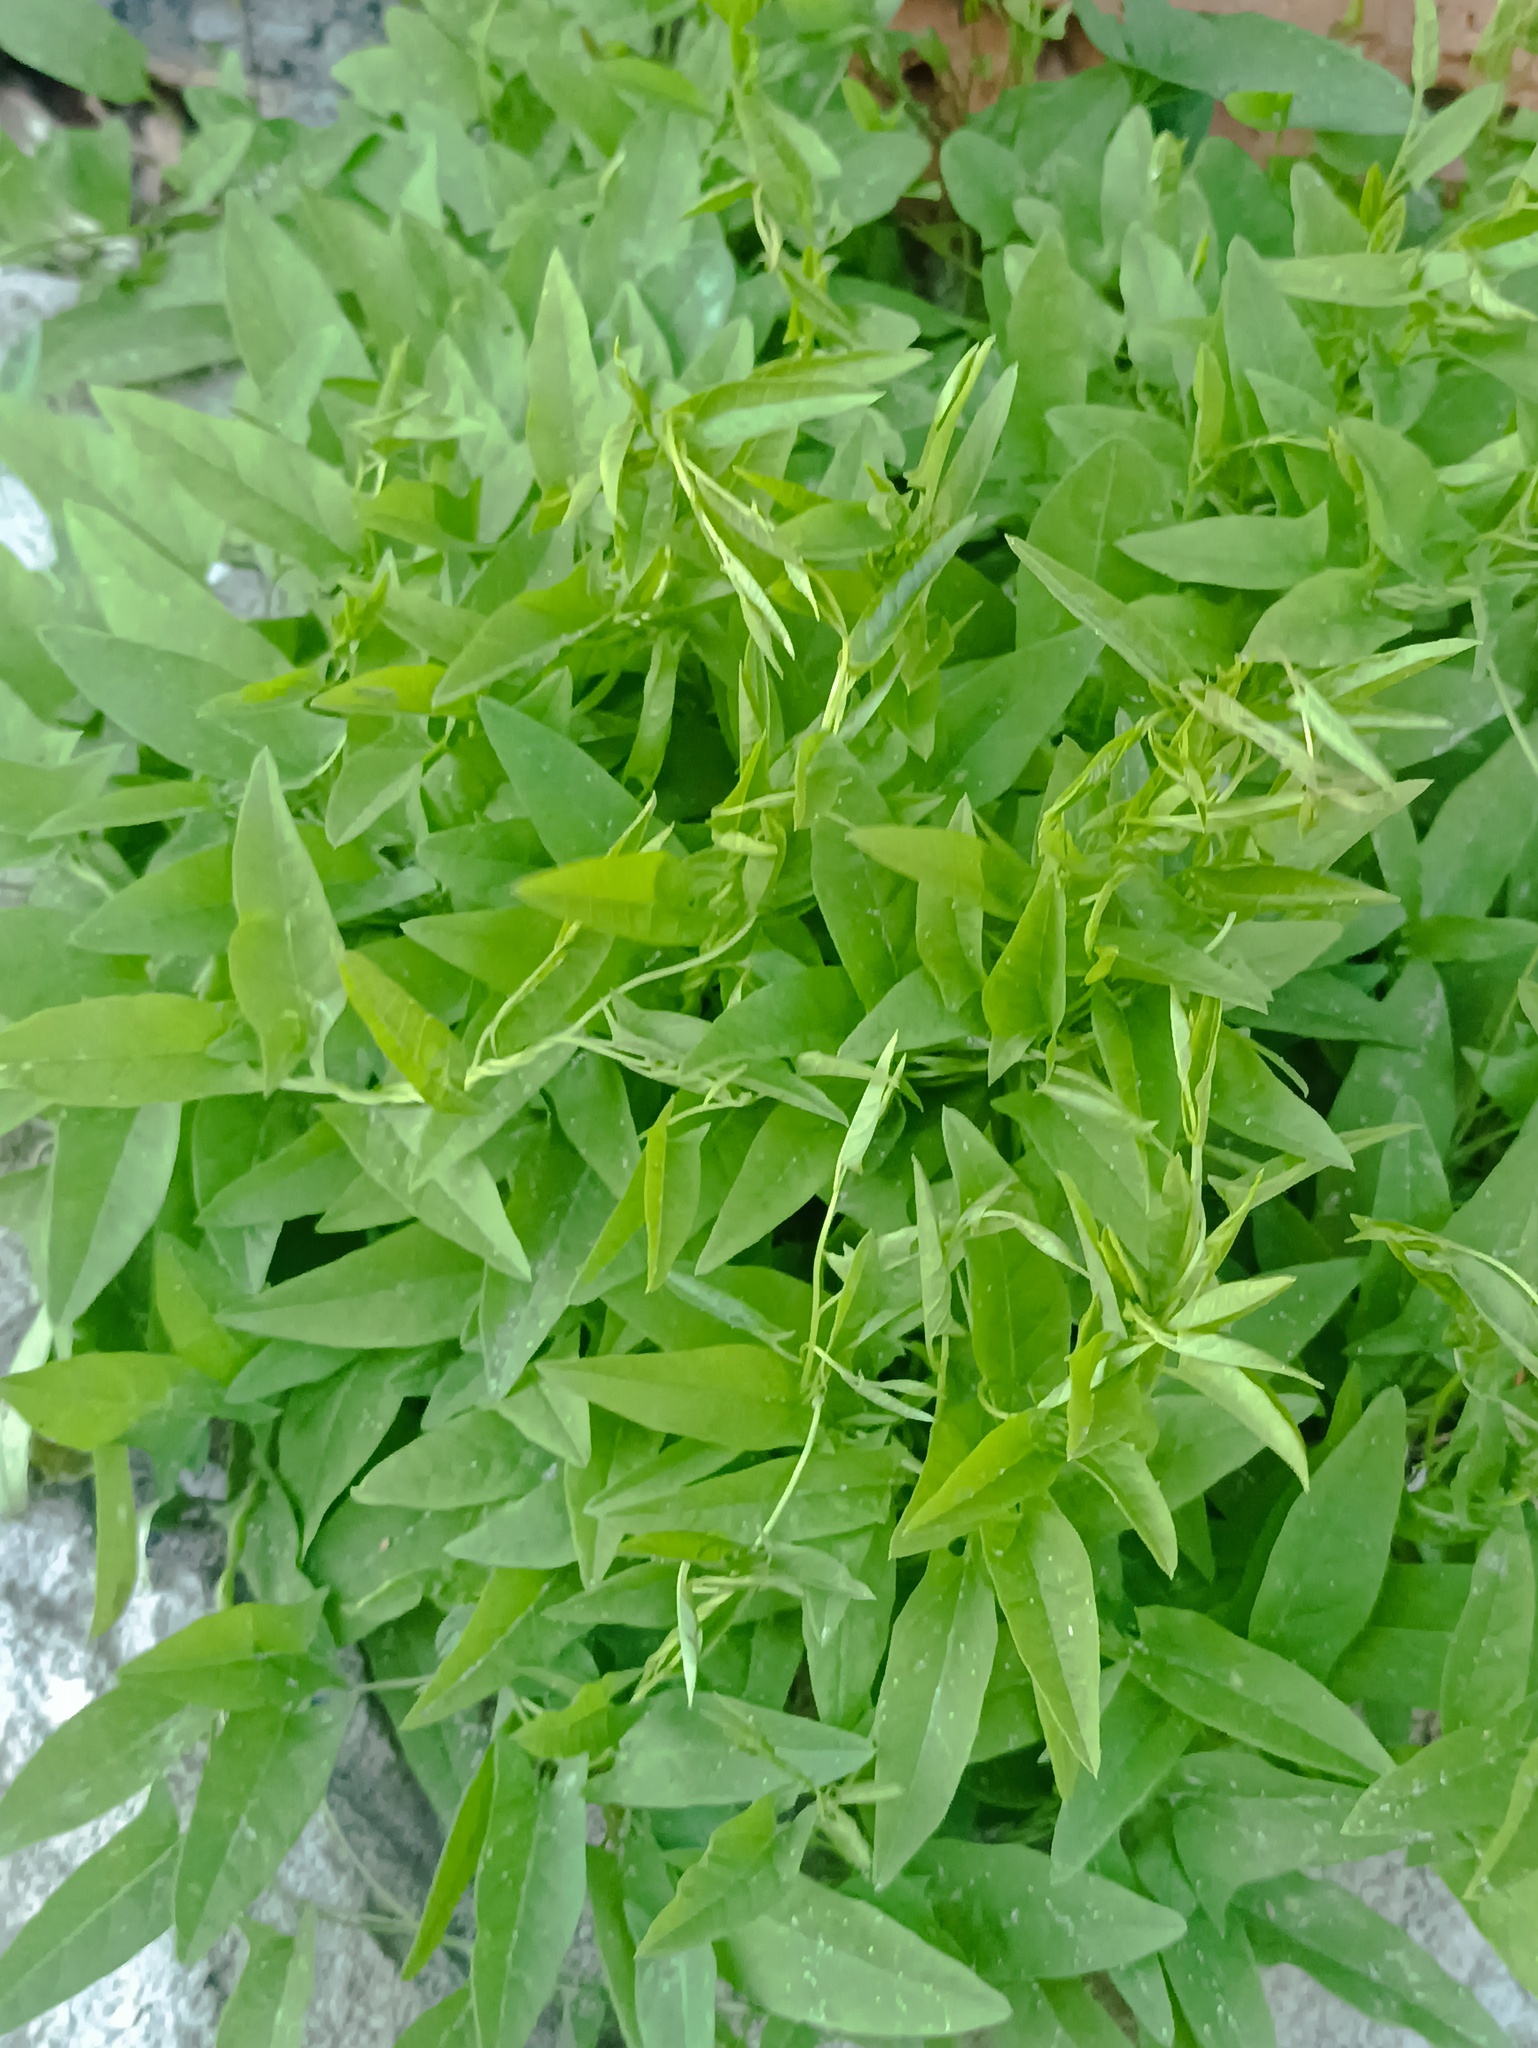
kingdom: Plantae
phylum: Tracheophyta
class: Magnoliopsida
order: Solanales
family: Convolvulaceae
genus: Convolvulus
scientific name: Convolvulus arvensis
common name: Field bindweed
